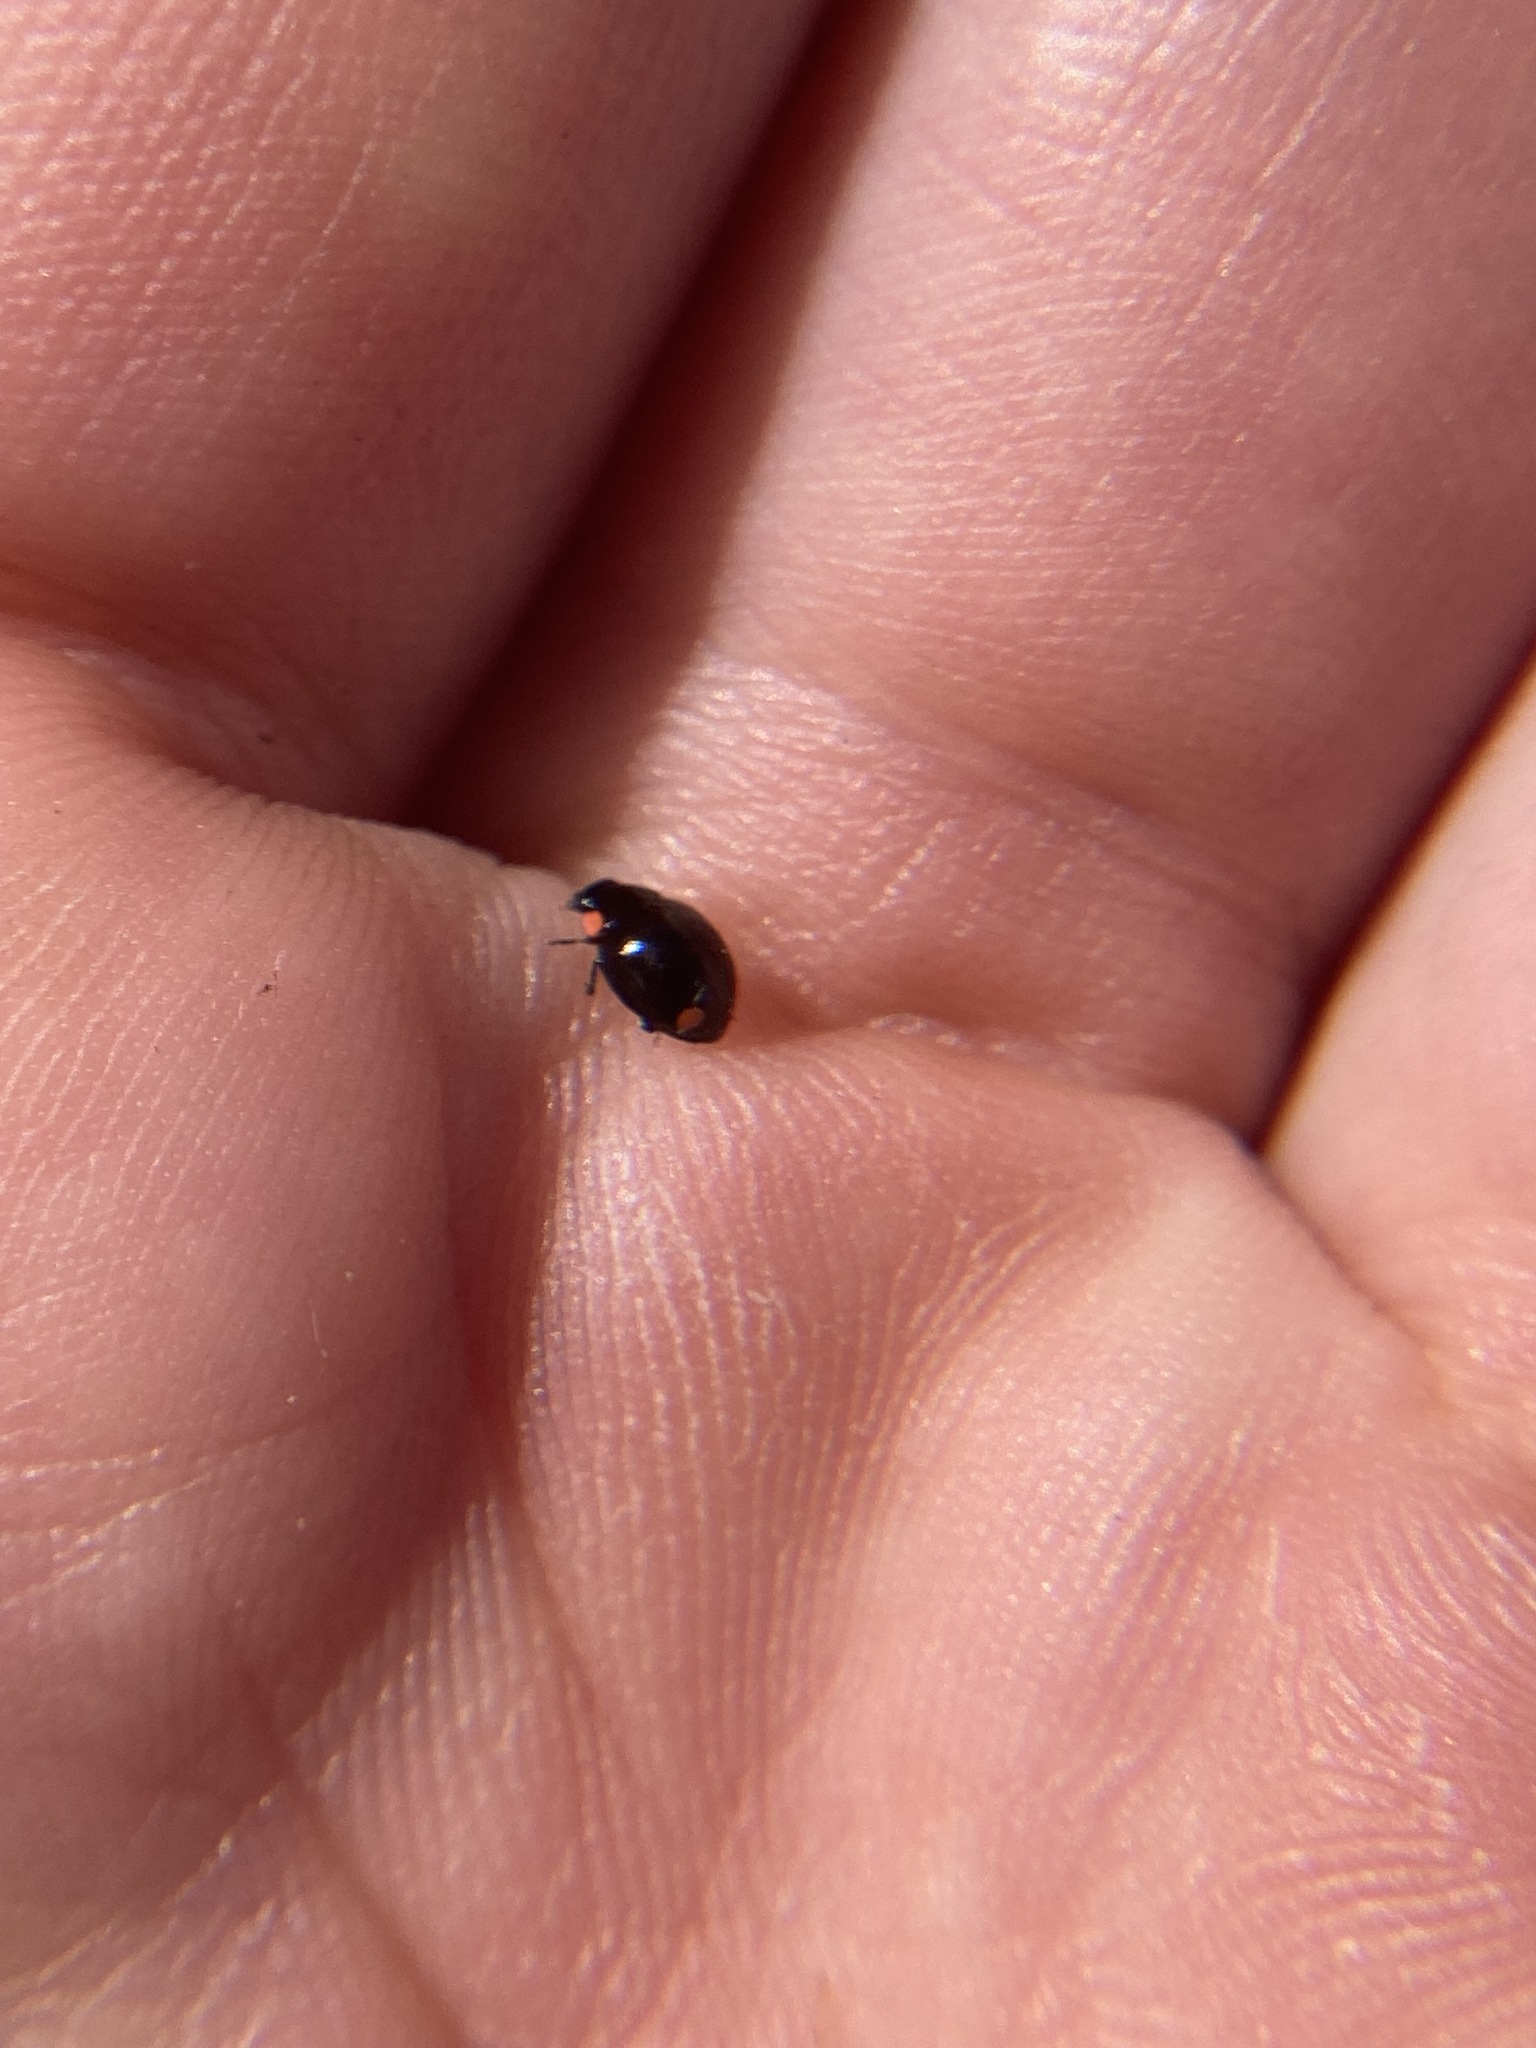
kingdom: Animalia
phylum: Arthropoda
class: Insecta
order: Coleoptera
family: Coccinellidae
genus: Hyperaspis
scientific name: Hyperaspis bigeminata
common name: Bigeminate sigil lady beetle
